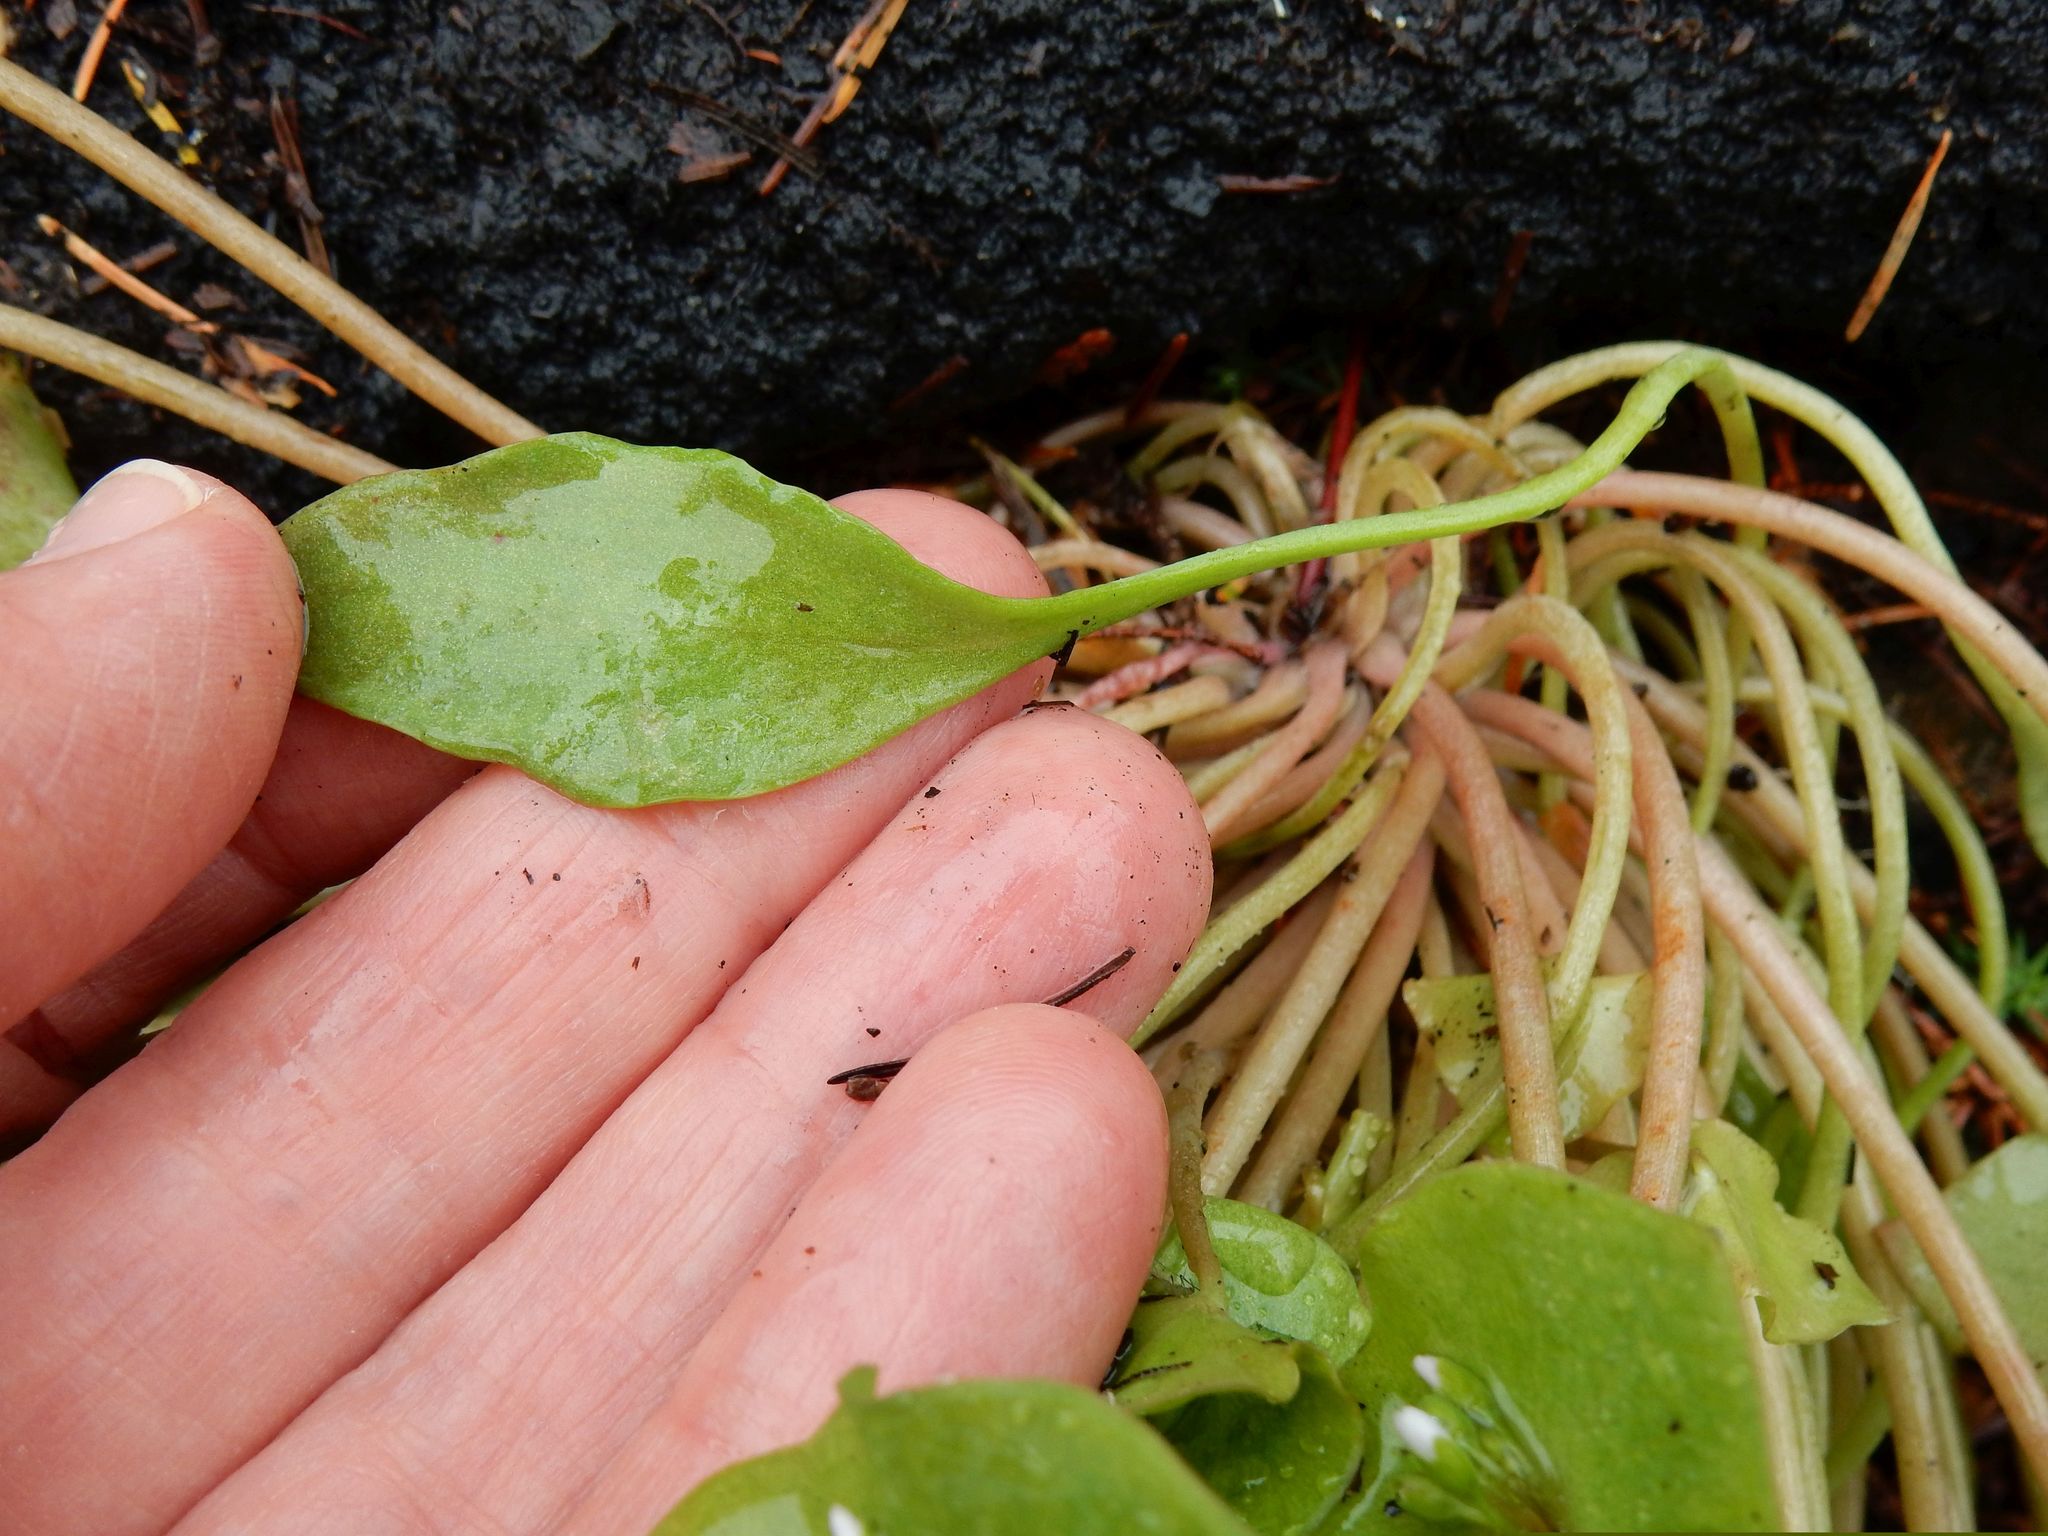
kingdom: Plantae
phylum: Tracheophyta
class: Magnoliopsida
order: Caryophyllales
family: Montiaceae
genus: Claytonia
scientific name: Claytonia perfoliata
